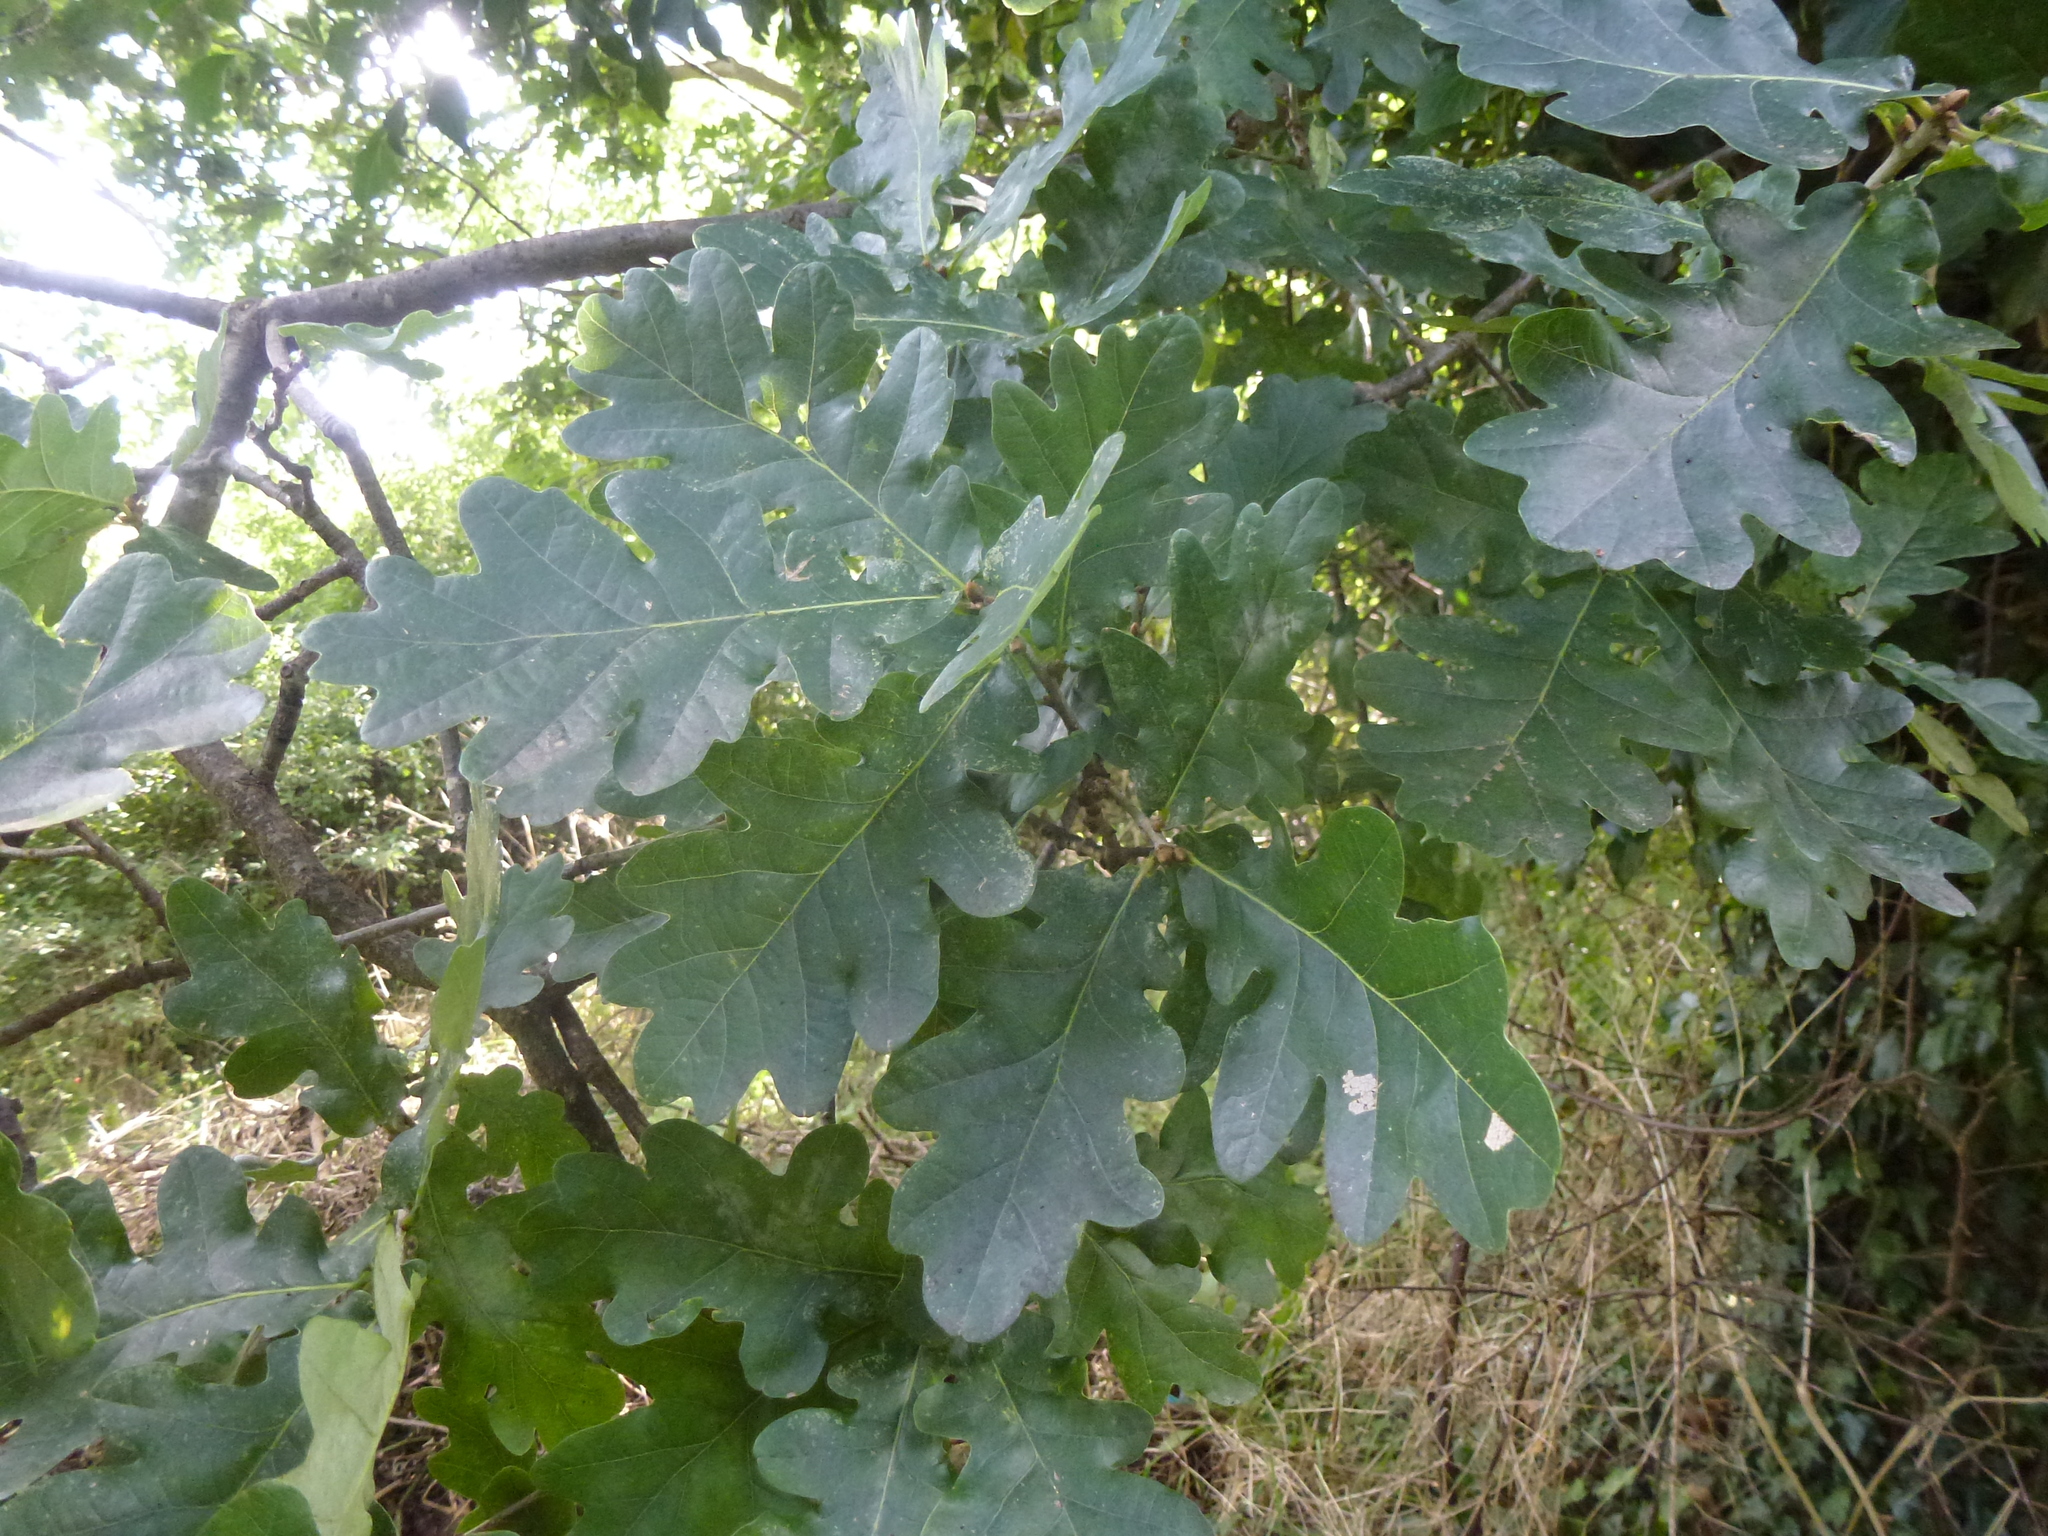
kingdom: Plantae
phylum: Tracheophyta
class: Magnoliopsida
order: Fagales
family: Fagaceae
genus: Quercus
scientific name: Quercus robur
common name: Pedunculate oak
